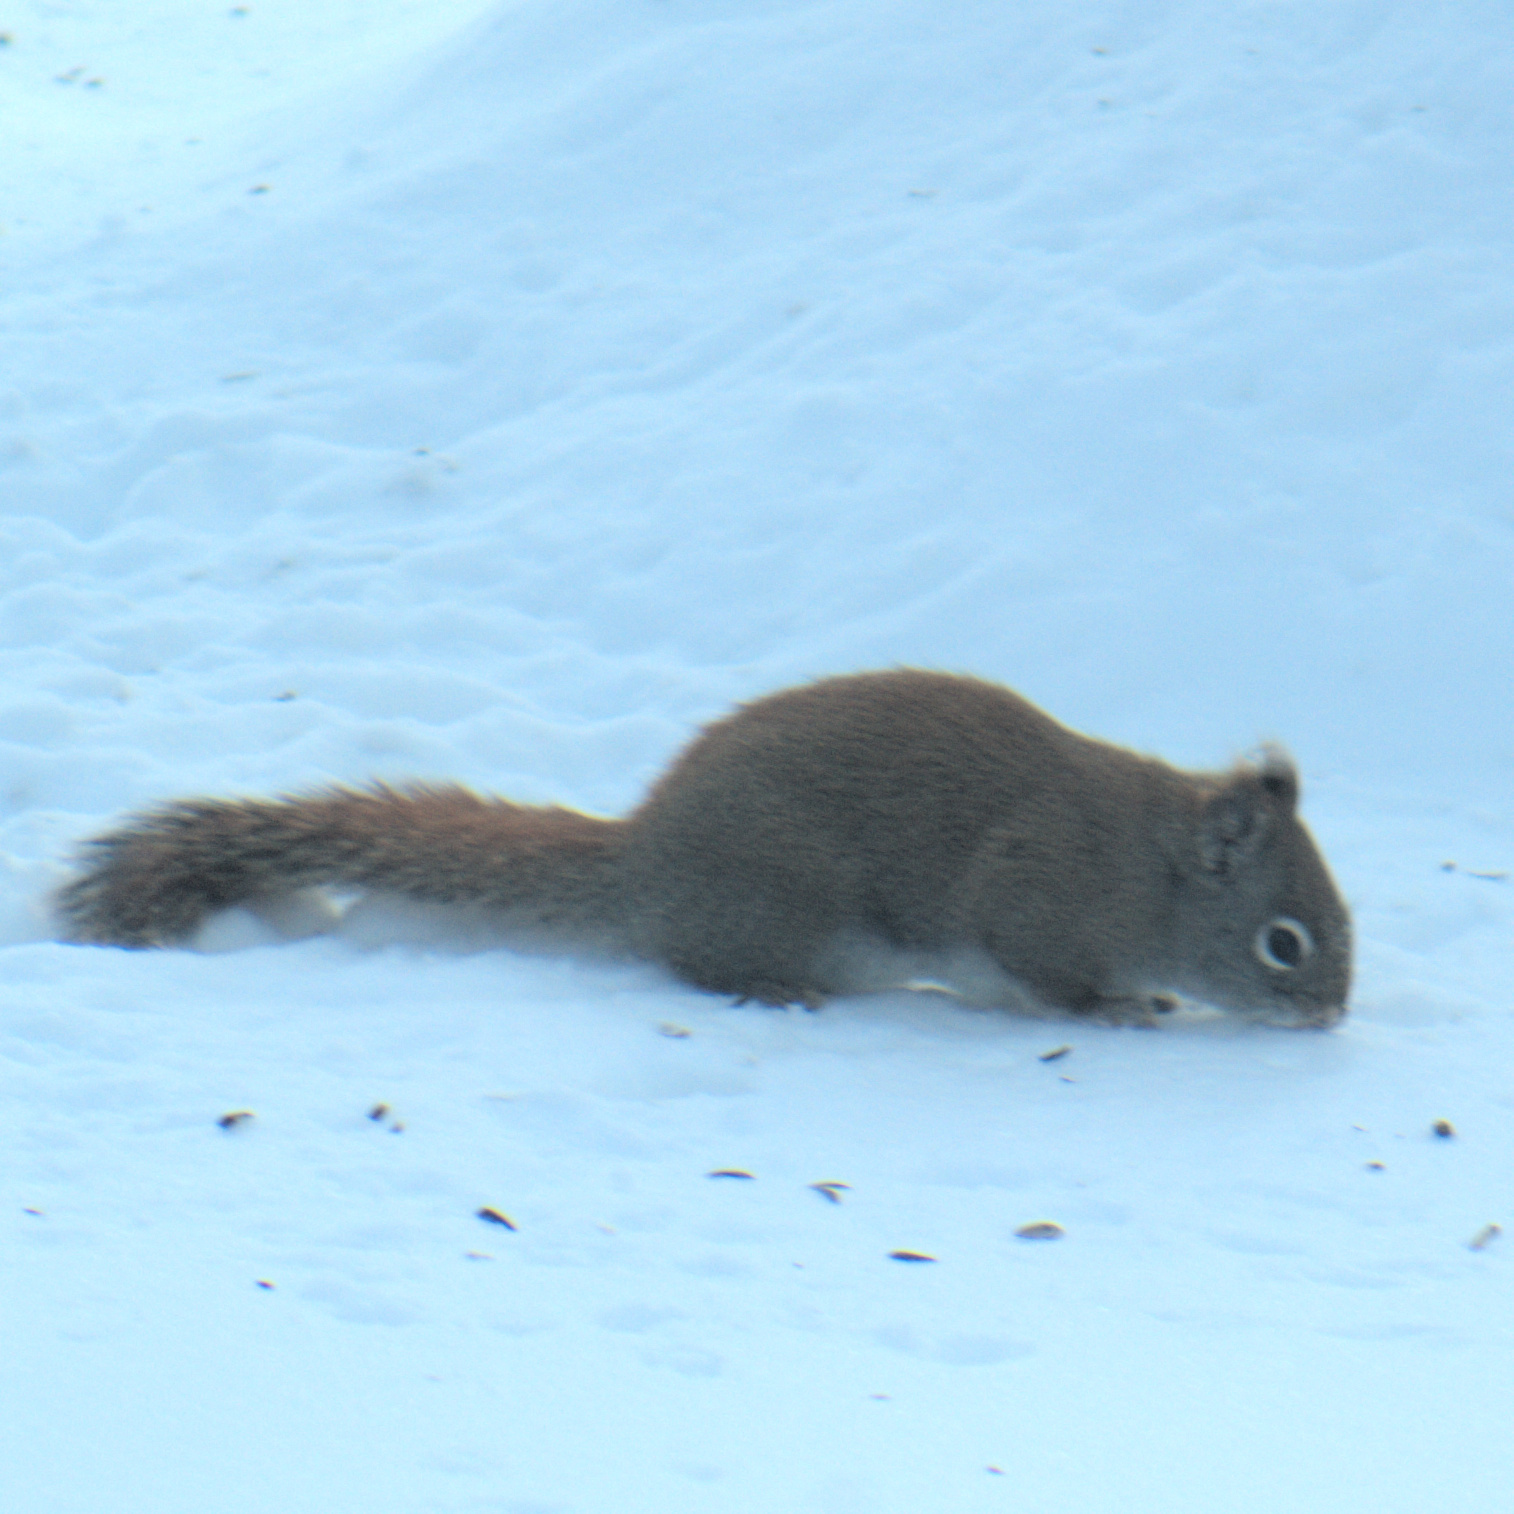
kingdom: Animalia
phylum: Chordata
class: Mammalia
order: Rodentia
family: Sciuridae
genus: Tamiasciurus
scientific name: Tamiasciurus hudsonicus
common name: Red squirrel
